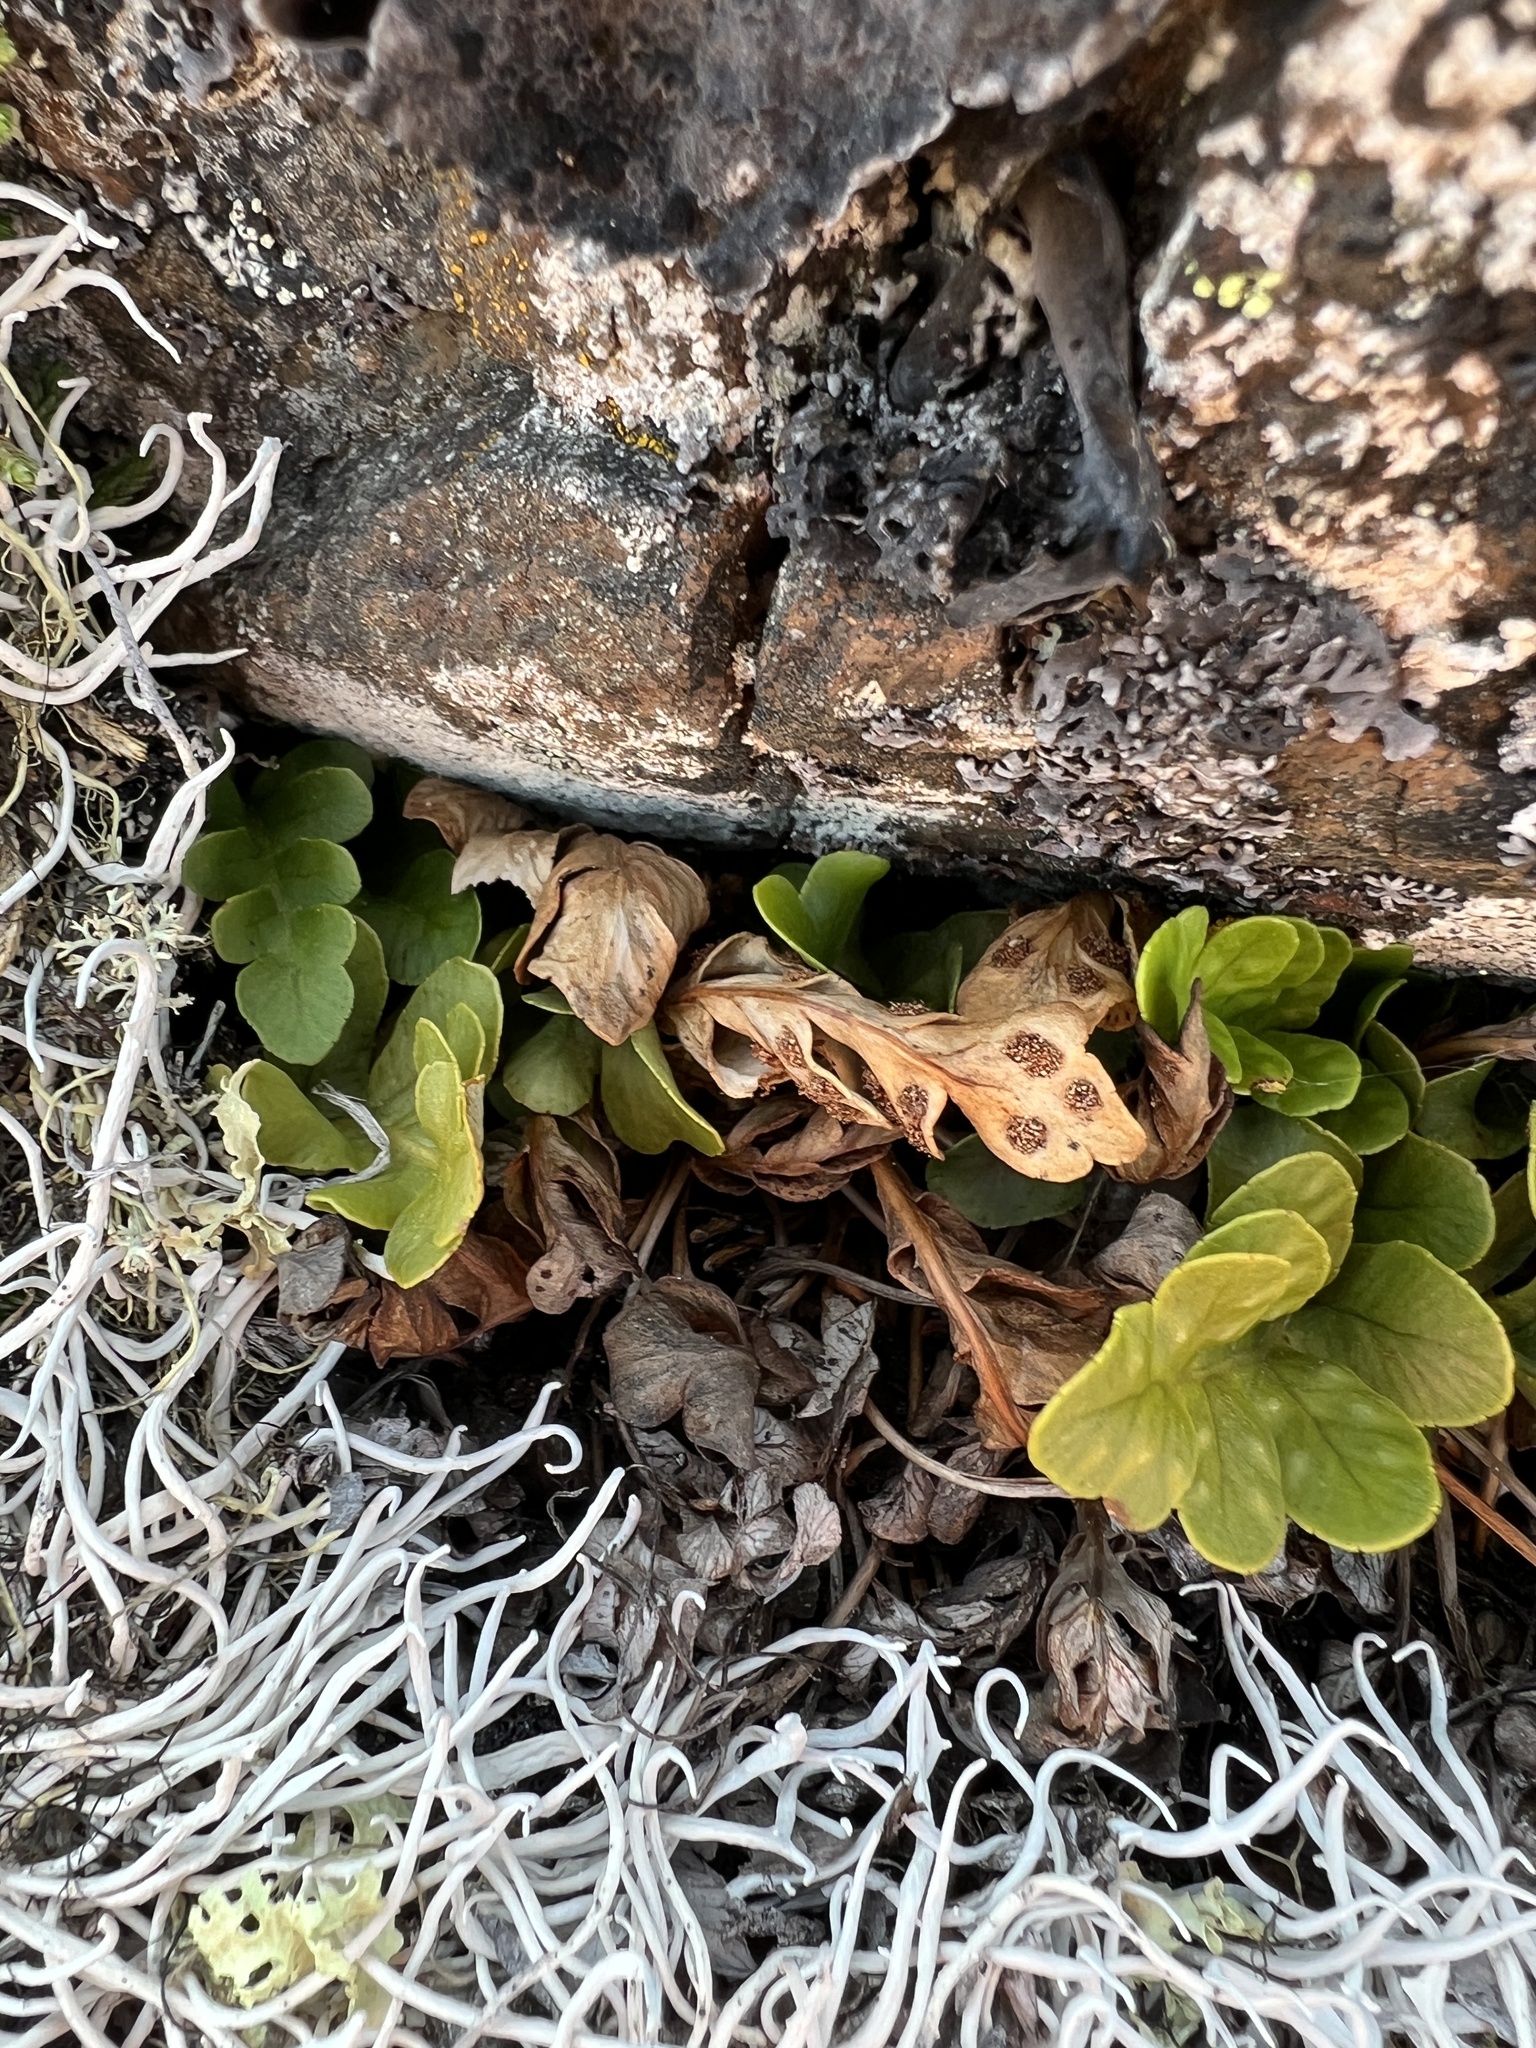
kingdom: Plantae
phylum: Tracheophyta
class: Polypodiopsida
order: Polypodiales
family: Polypodiaceae
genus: Polypodium
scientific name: Polypodium amorphum
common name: Pacific polypody
